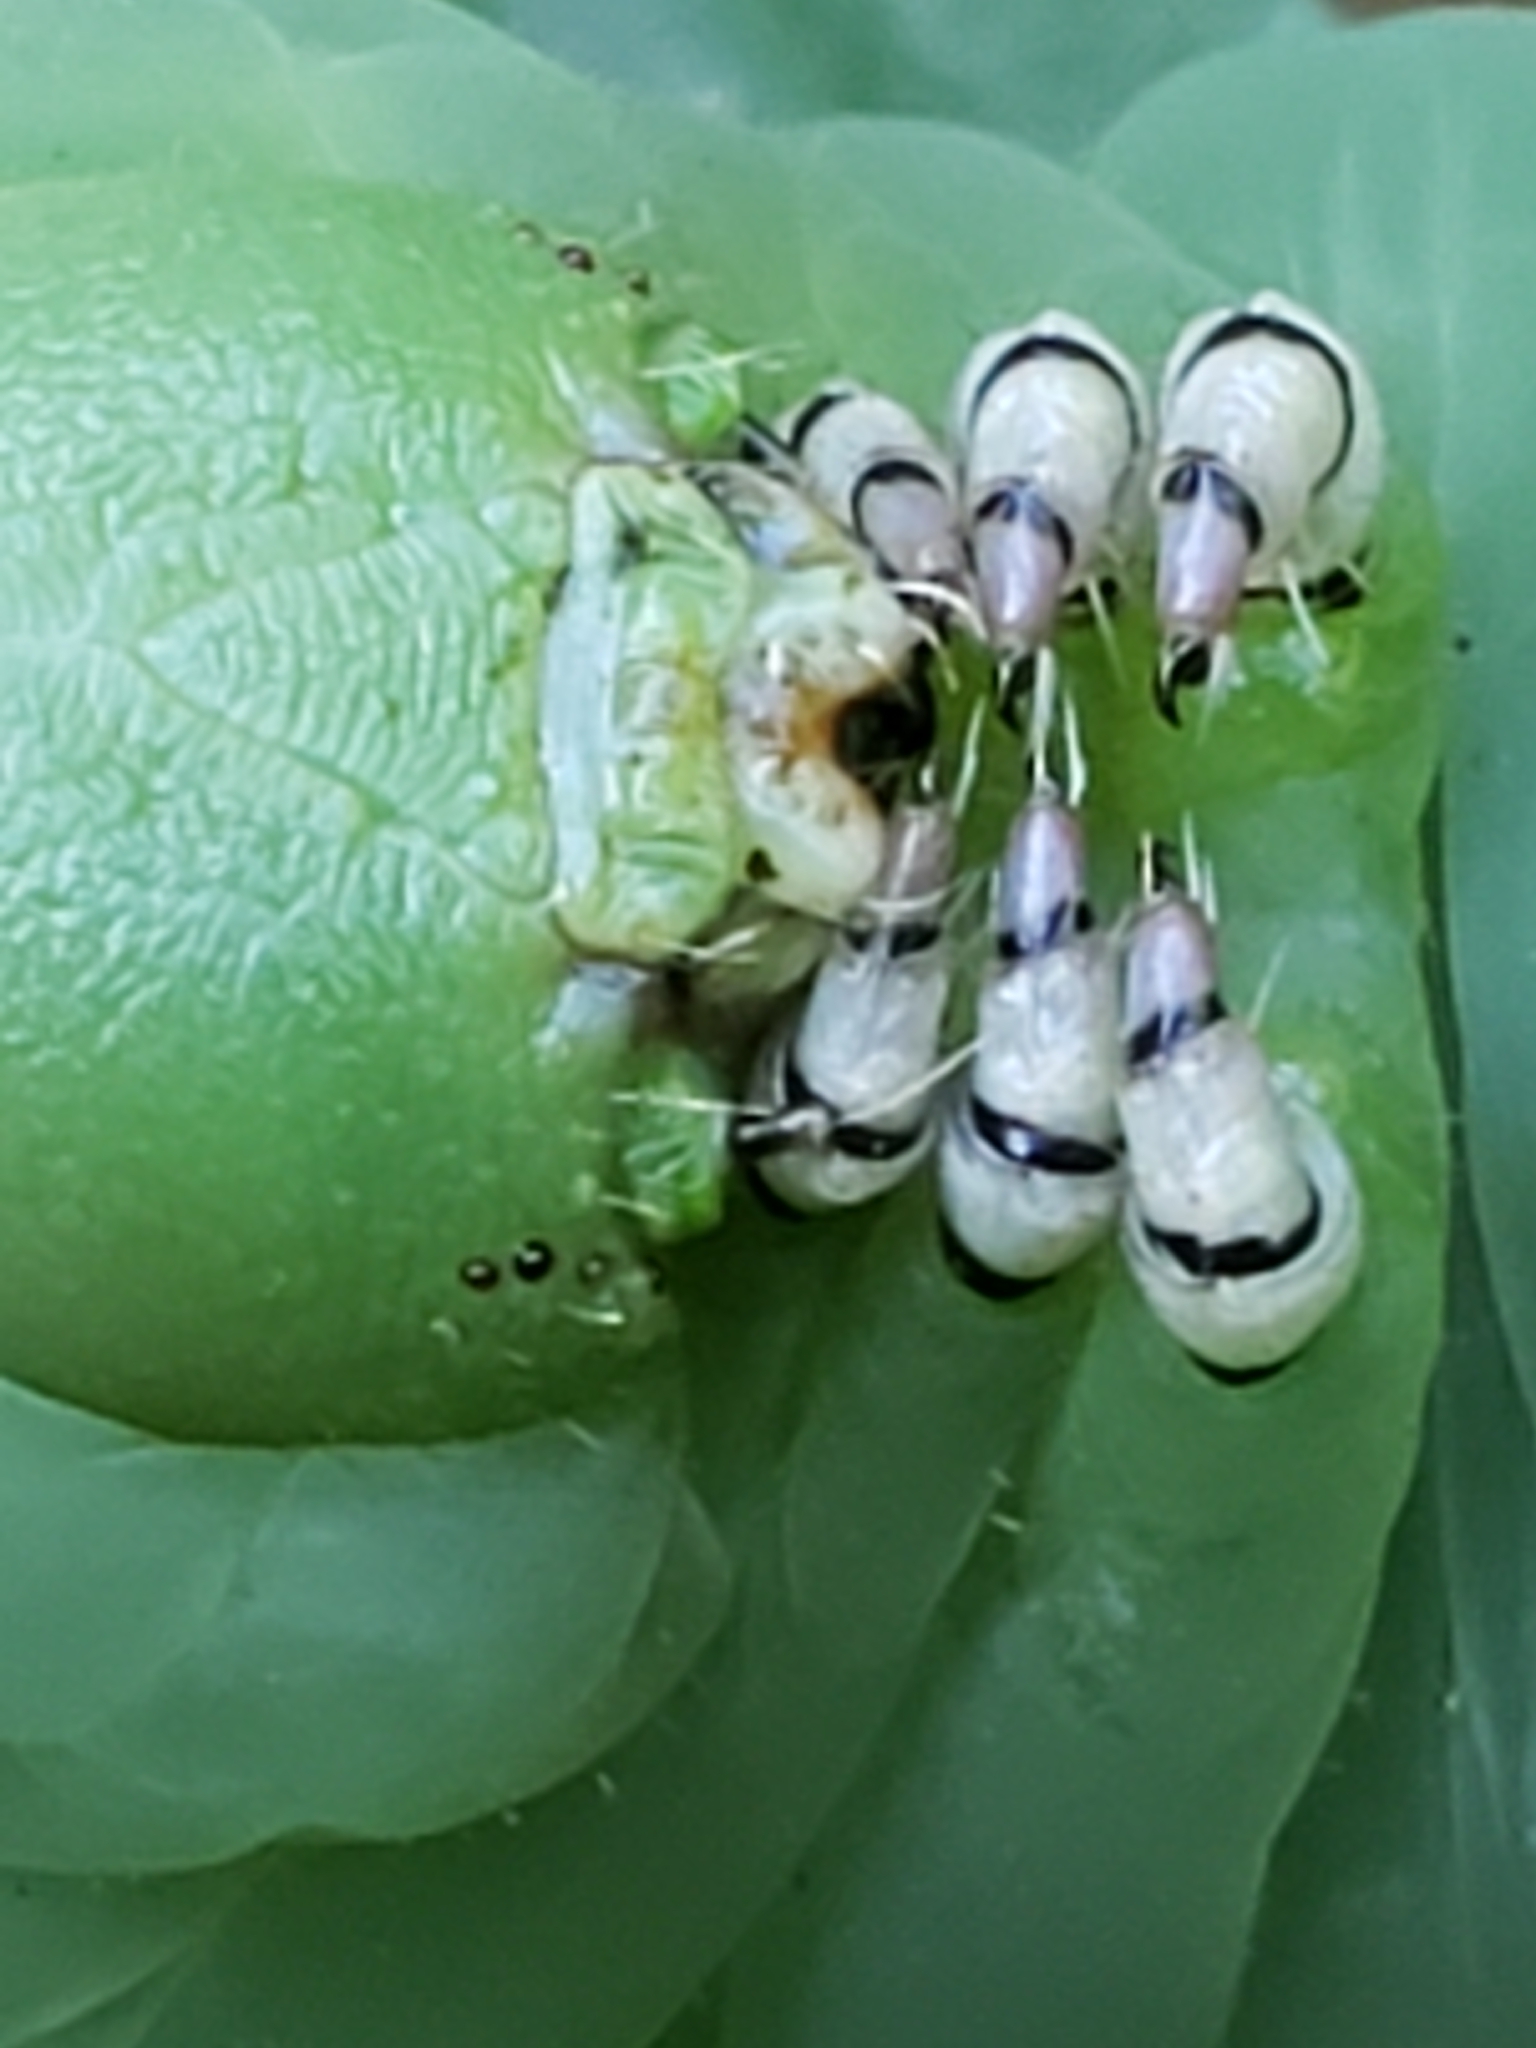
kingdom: Animalia
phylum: Arthropoda
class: Insecta
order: Lepidoptera
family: Sphingidae
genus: Manduca
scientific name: Manduca sexta
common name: Carolina sphinx
